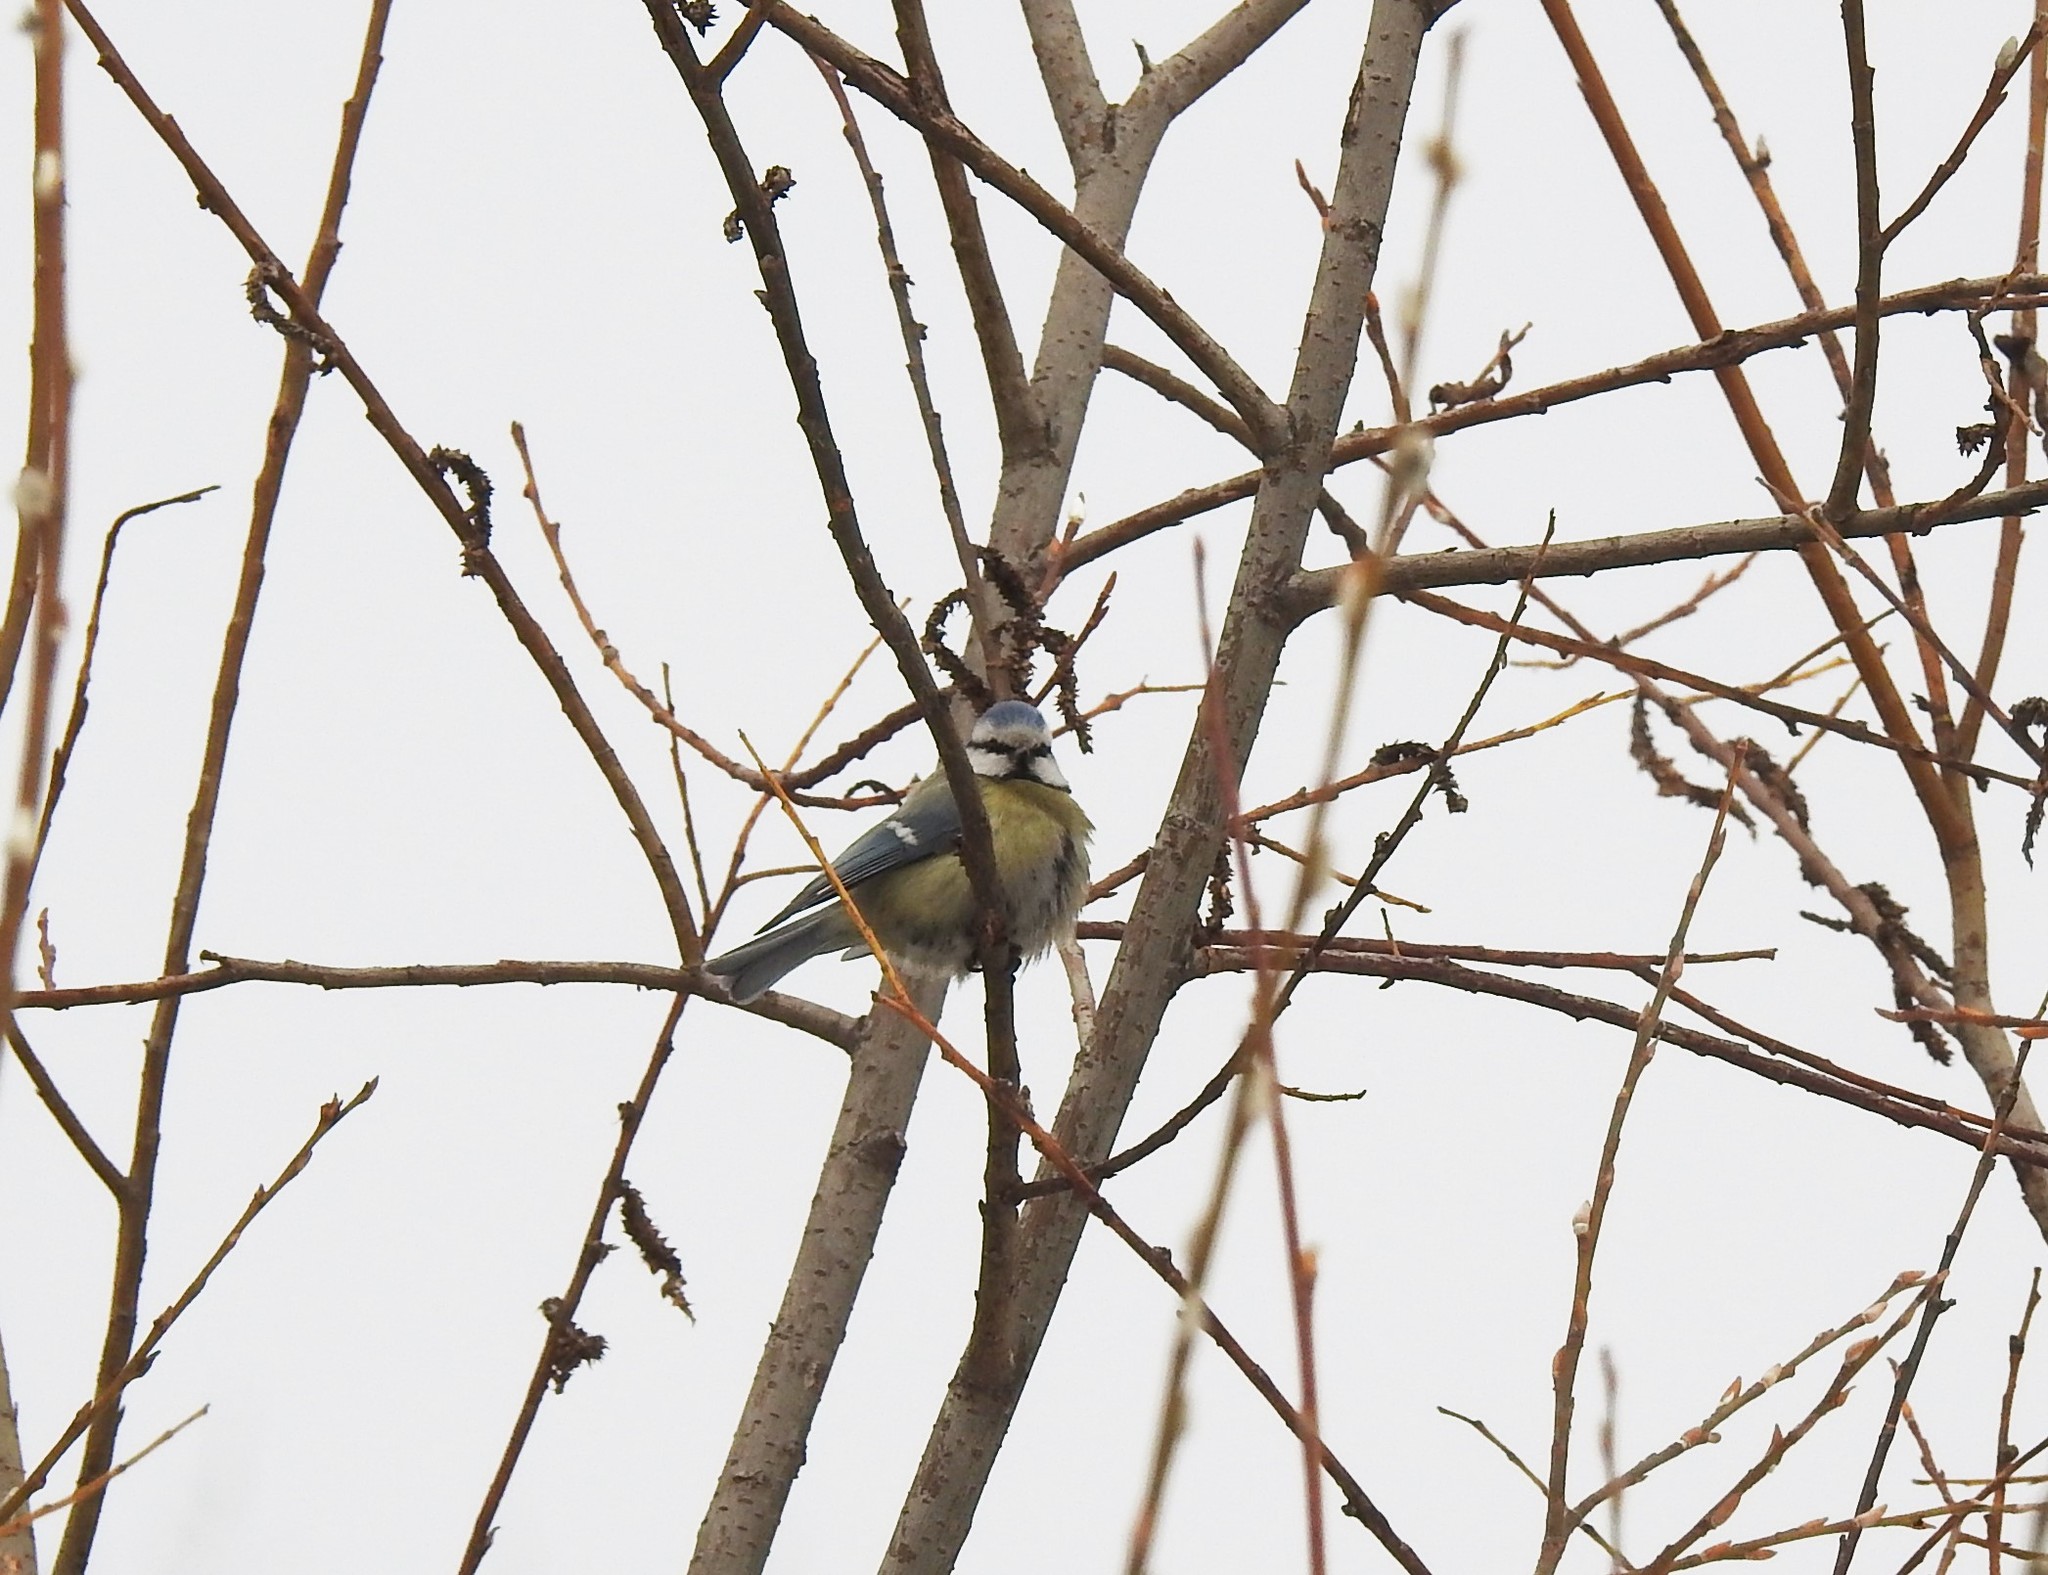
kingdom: Animalia
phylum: Chordata
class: Aves
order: Passeriformes
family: Paridae
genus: Cyanistes
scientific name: Cyanistes caeruleus
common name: Eurasian blue tit
